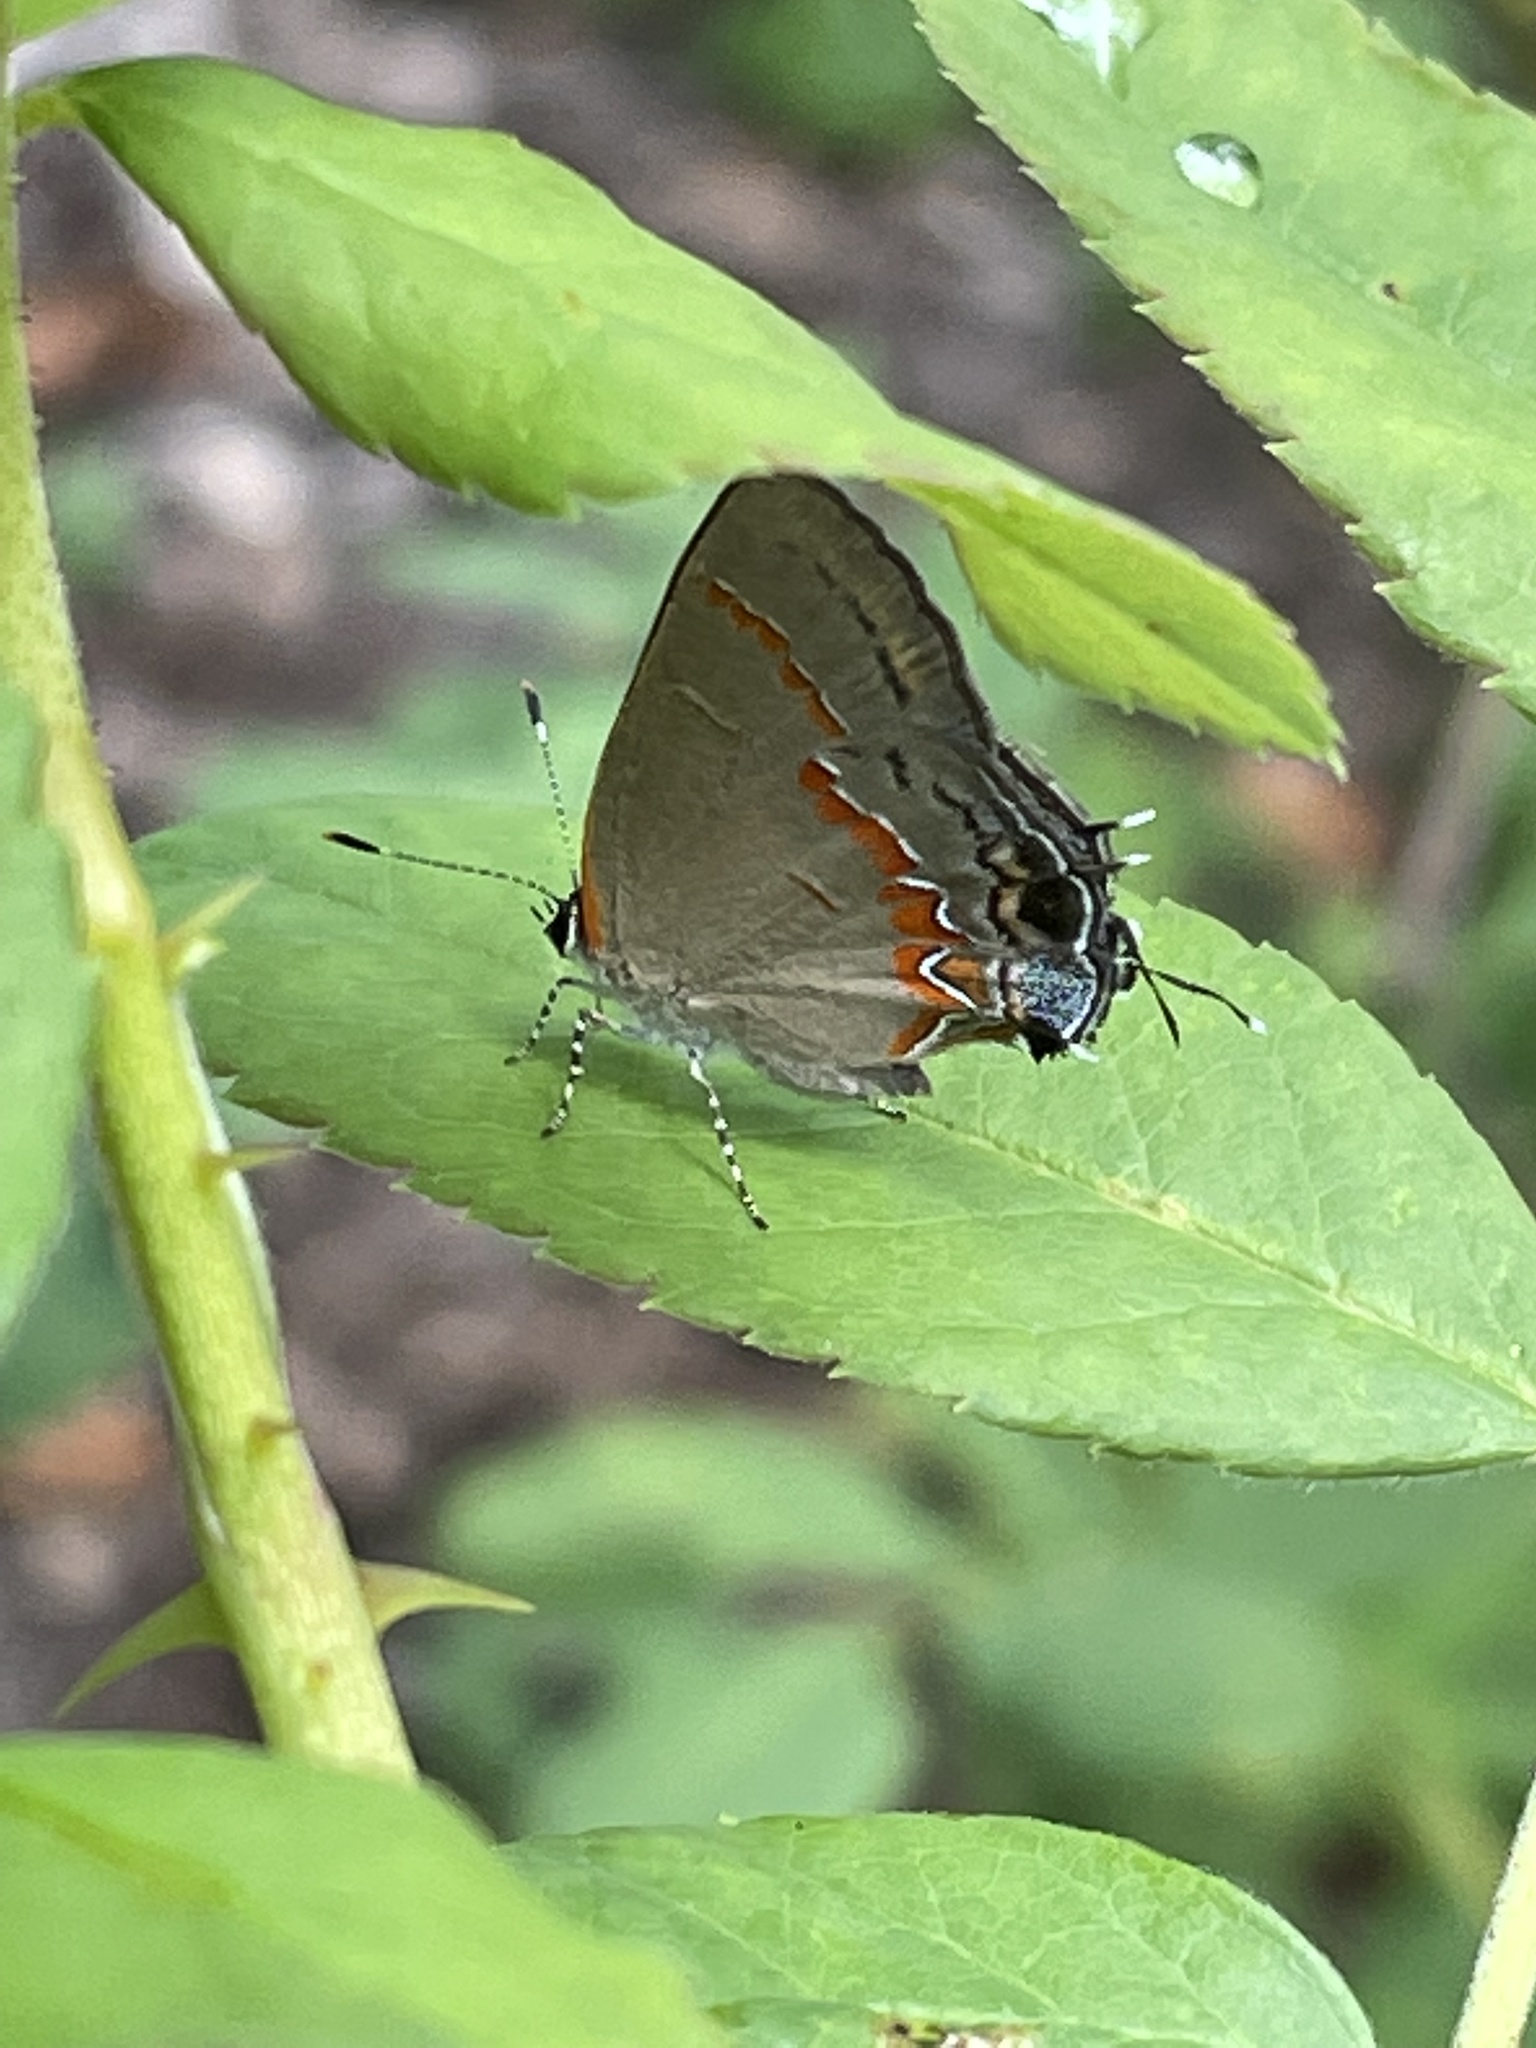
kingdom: Animalia
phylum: Arthropoda
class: Insecta
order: Lepidoptera
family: Lycaenidae
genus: Calycopis
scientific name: Calycopis cecrops
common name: Red-banded hairstreak
